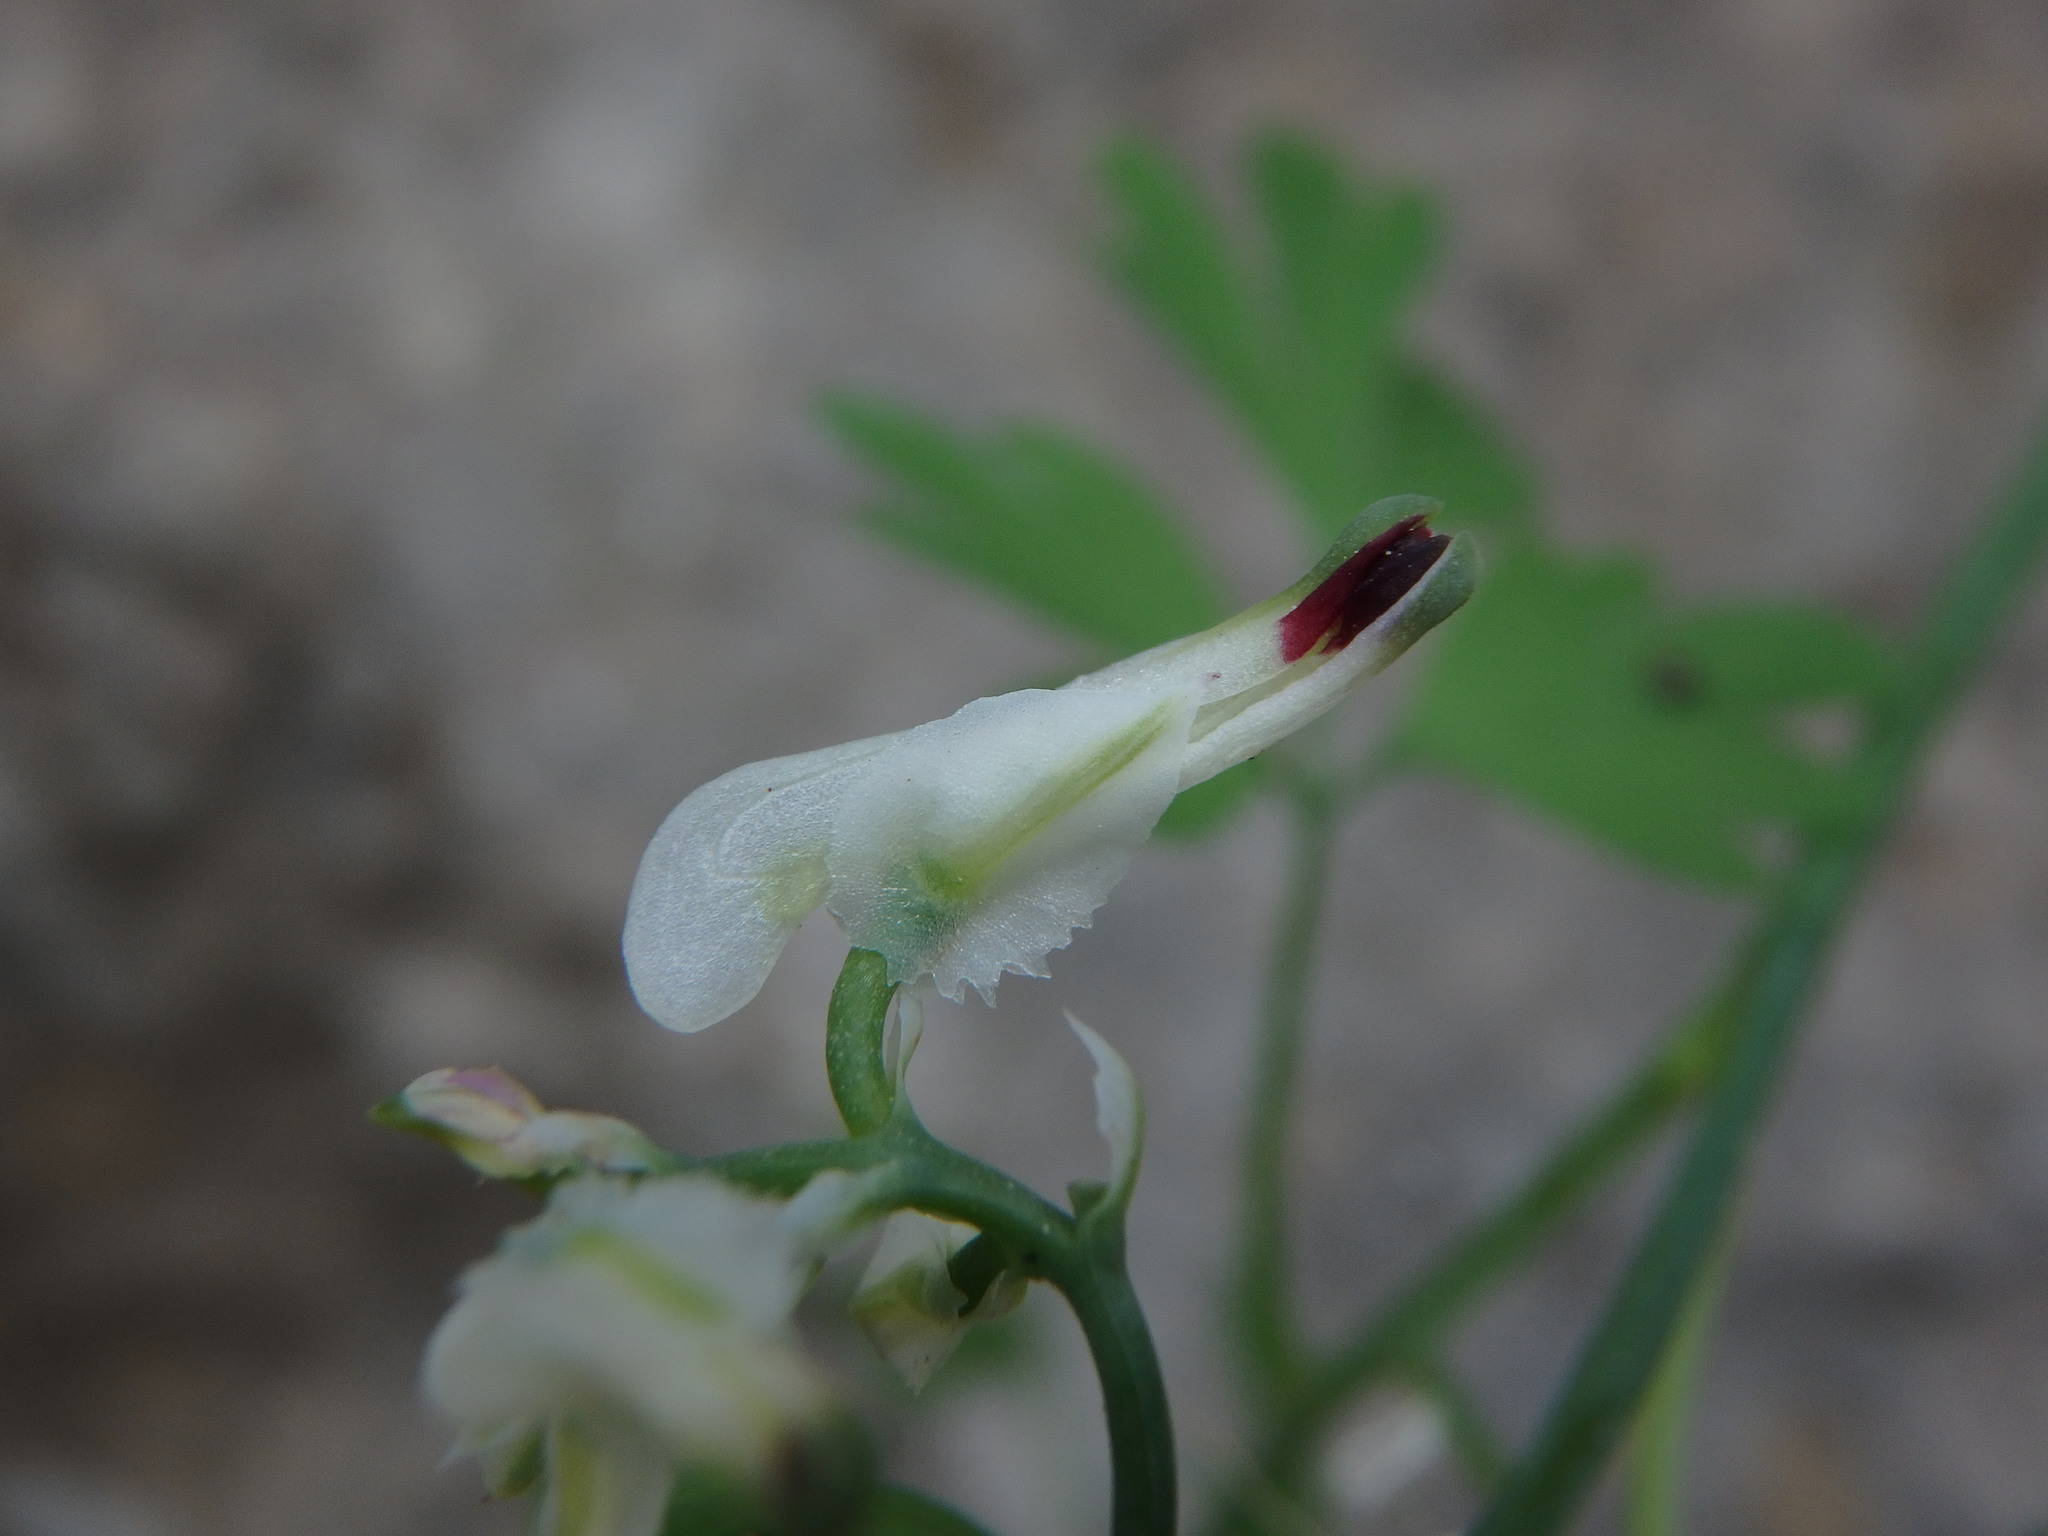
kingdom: Plantae
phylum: Tracheophyta
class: Magnoliopsida
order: Ranunculales
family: Papaveraceae
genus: Fumaria
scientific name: Fumaria capreolata
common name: White ramping-fumitory
